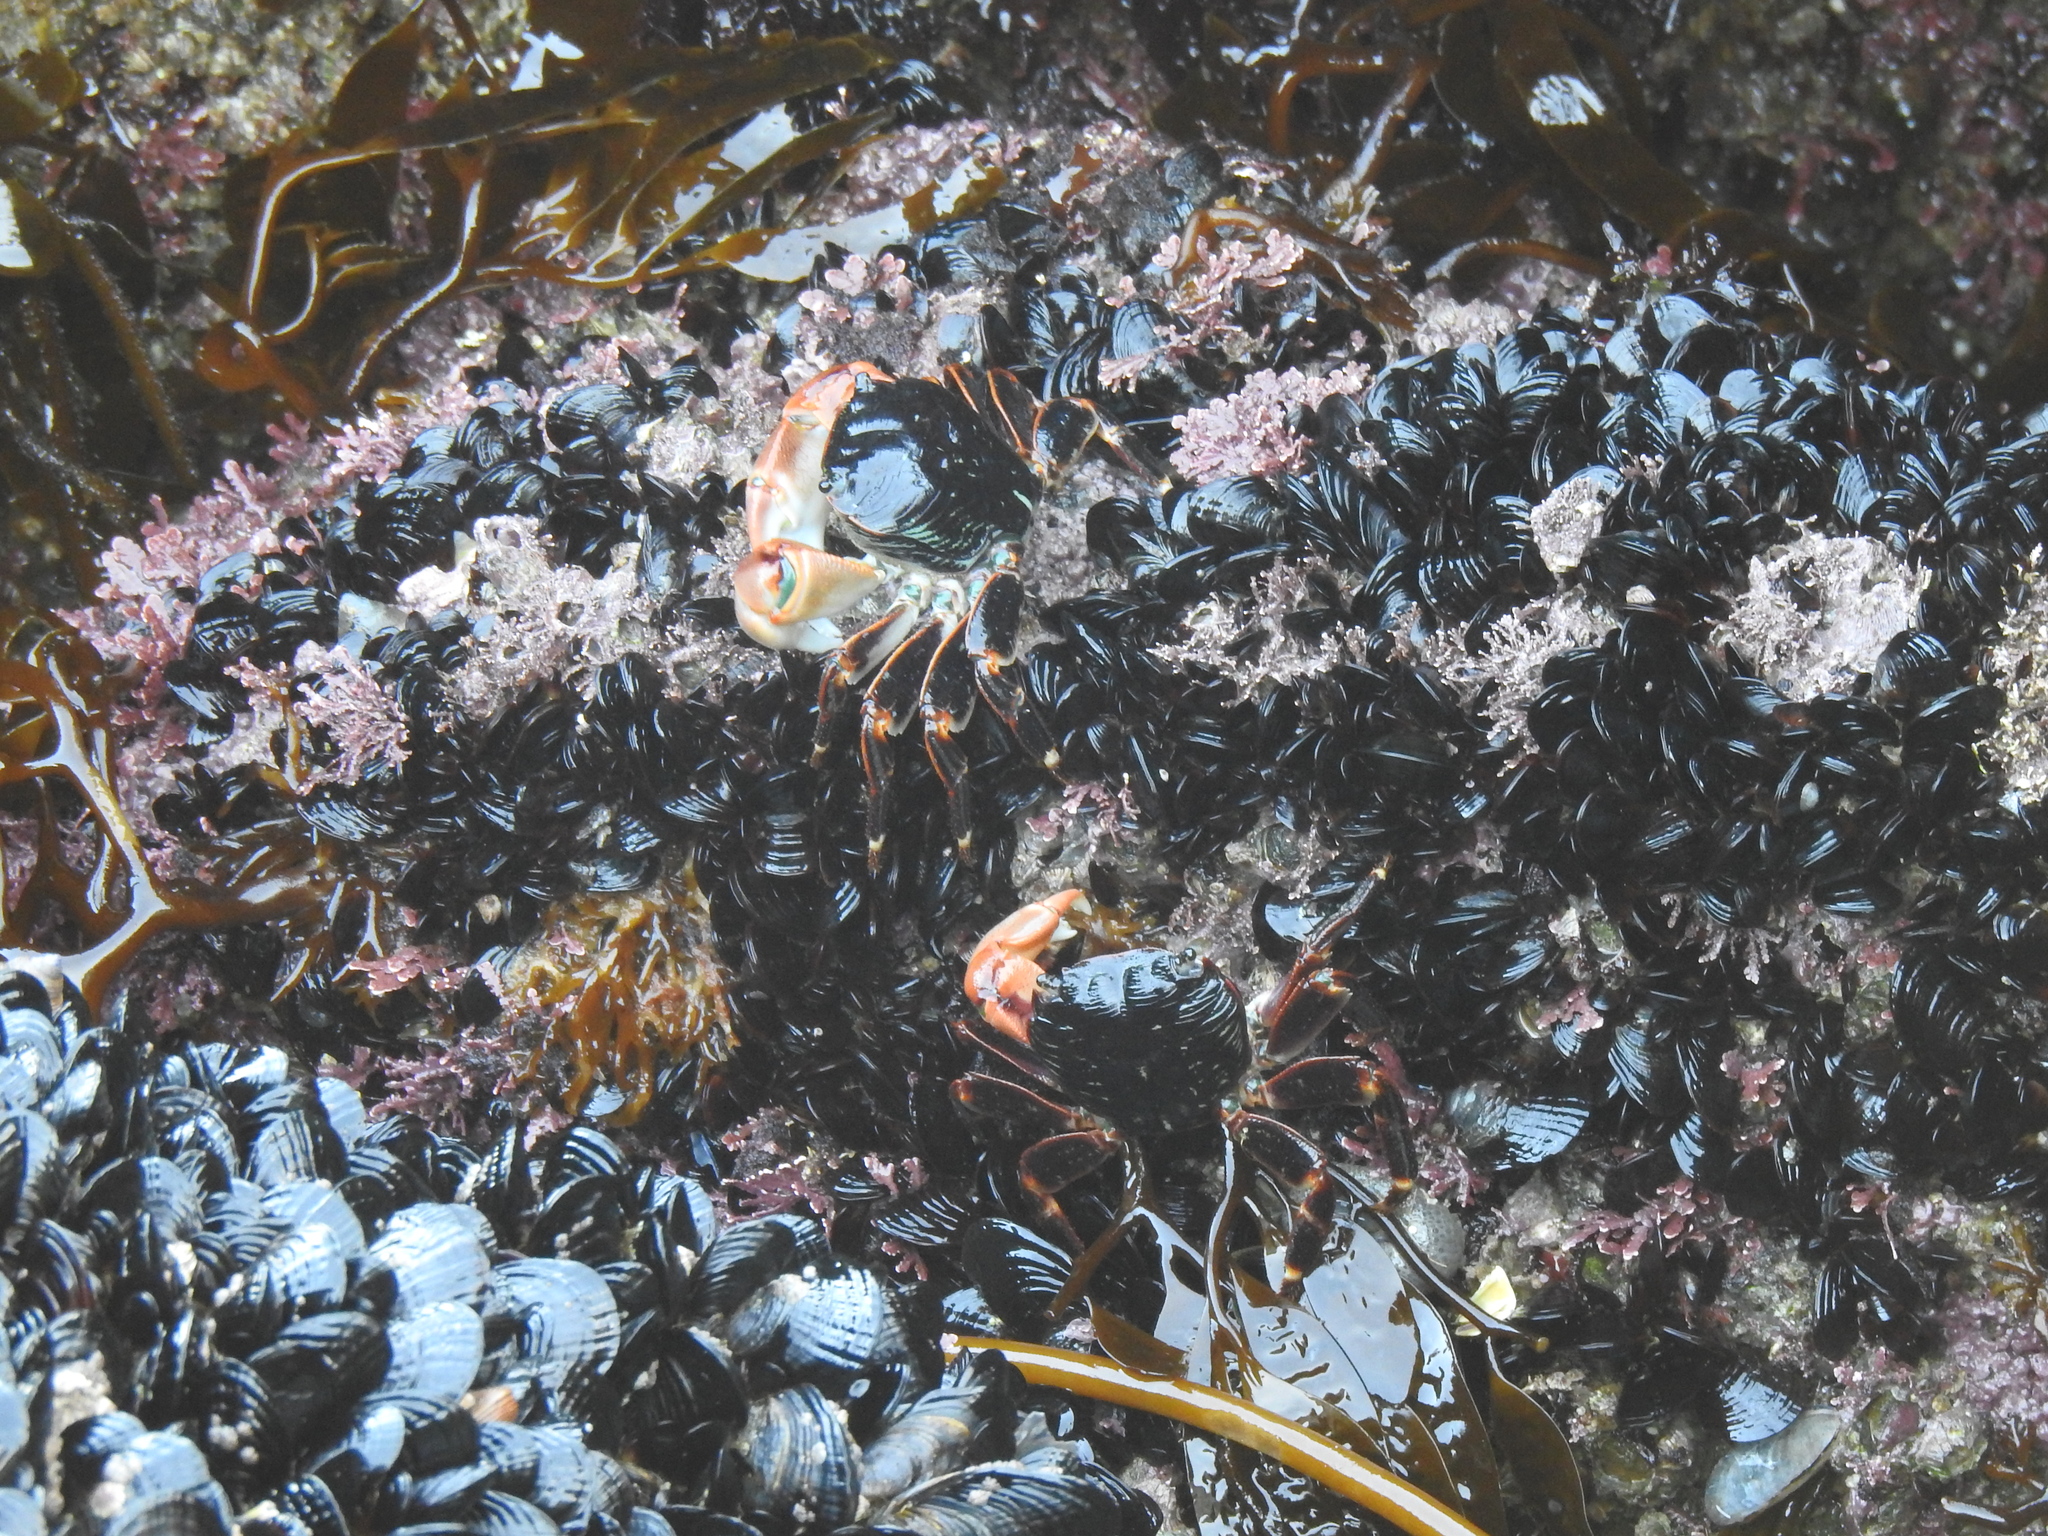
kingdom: Animalia
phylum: Arthropoda
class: Malacostraca
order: Decapoda
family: Grapsidae
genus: Pachygrapsus
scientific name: Pachygrapsus crassipes
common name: Striped shore crab
